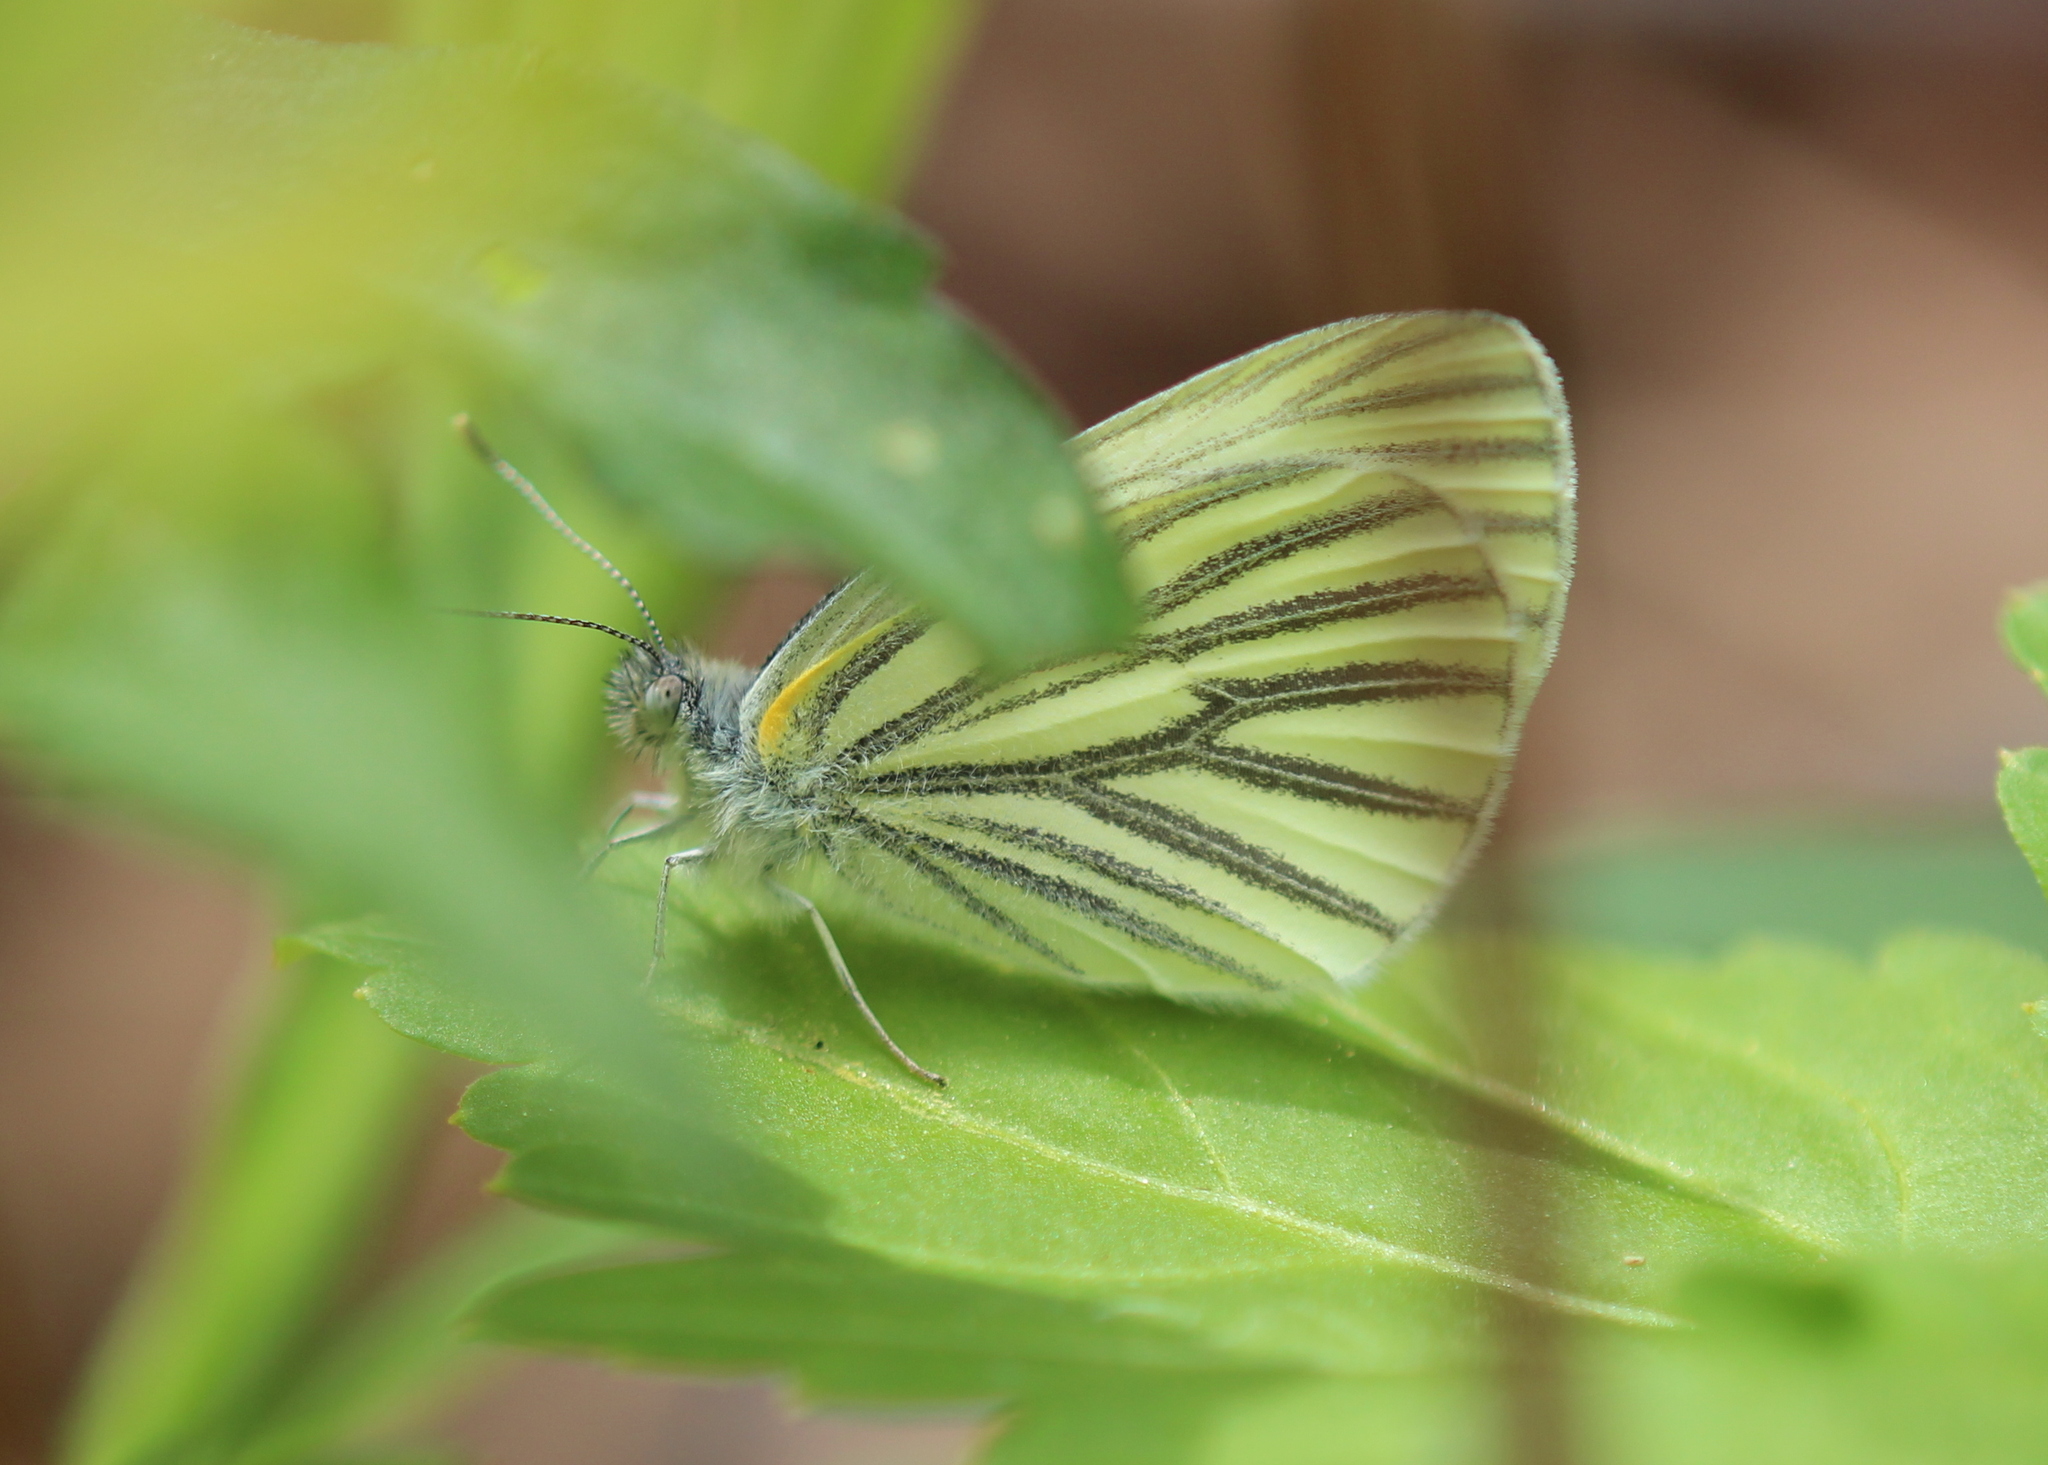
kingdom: Animalia
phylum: Arthropoda
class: Insecta
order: Lepidoptera
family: Pieridae
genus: Pieris
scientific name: Pieris oleracea
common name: Mustard white
